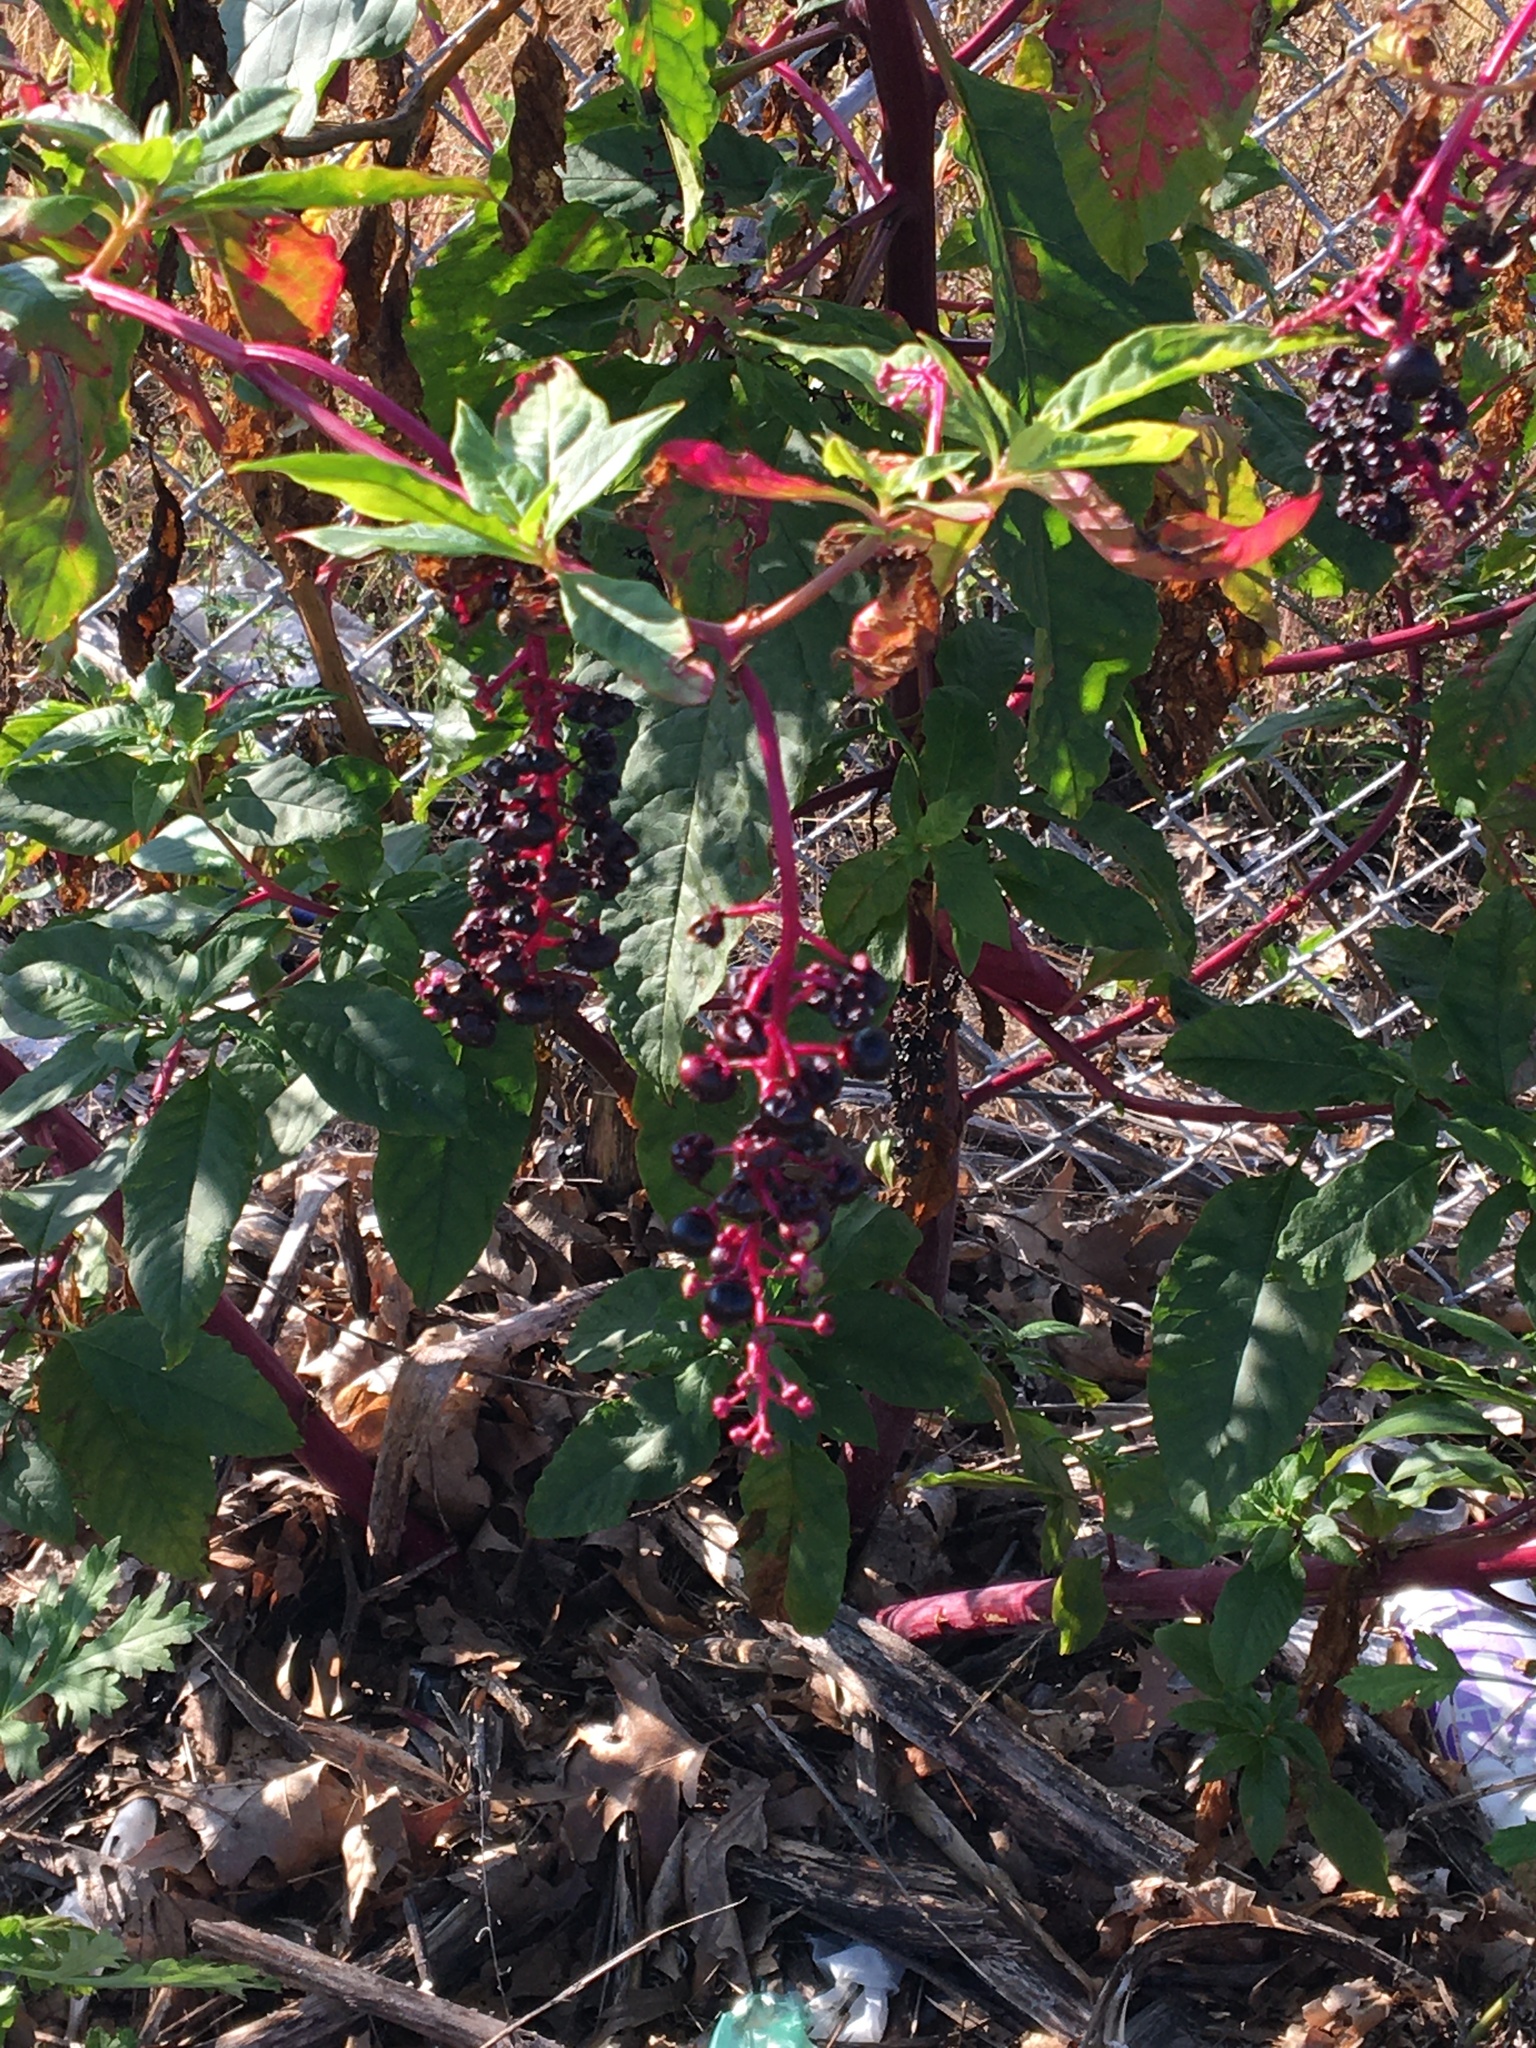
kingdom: Plantae
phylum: Tracheophyta
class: Magnoliopsida
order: Caryophyllales
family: Phytolaccaceae
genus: Phytolacca
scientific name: Phytolacca americana
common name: American pokeweed
